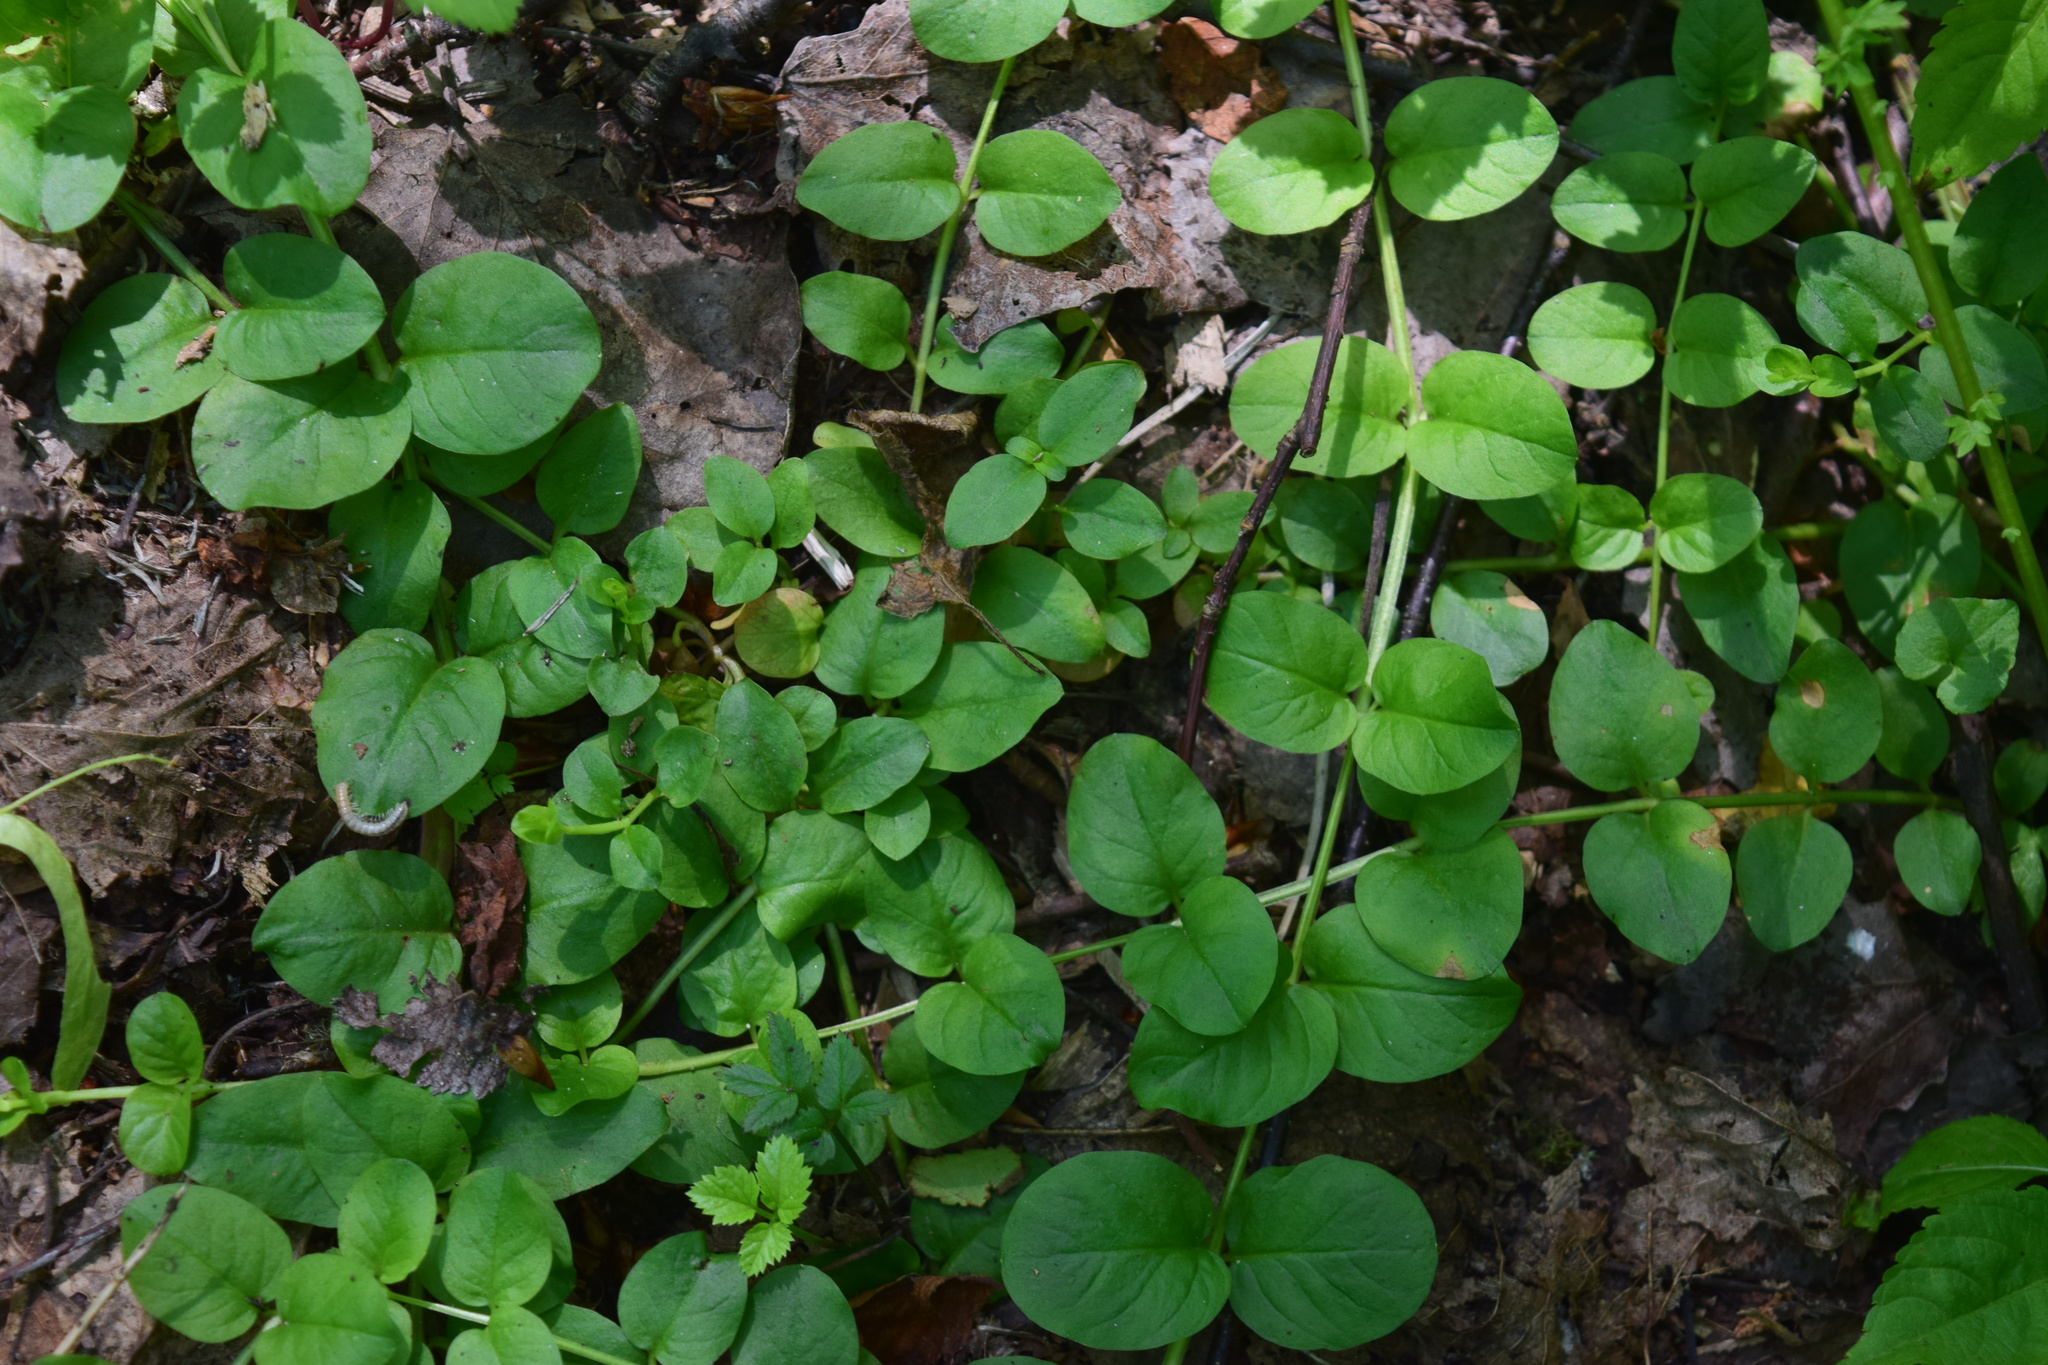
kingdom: Plantae
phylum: Tracheophyta
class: Magnoliopsida
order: Ericales
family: Primulaceae
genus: Lysimachia
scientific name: Lysimachia nummularia
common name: Moneywort
